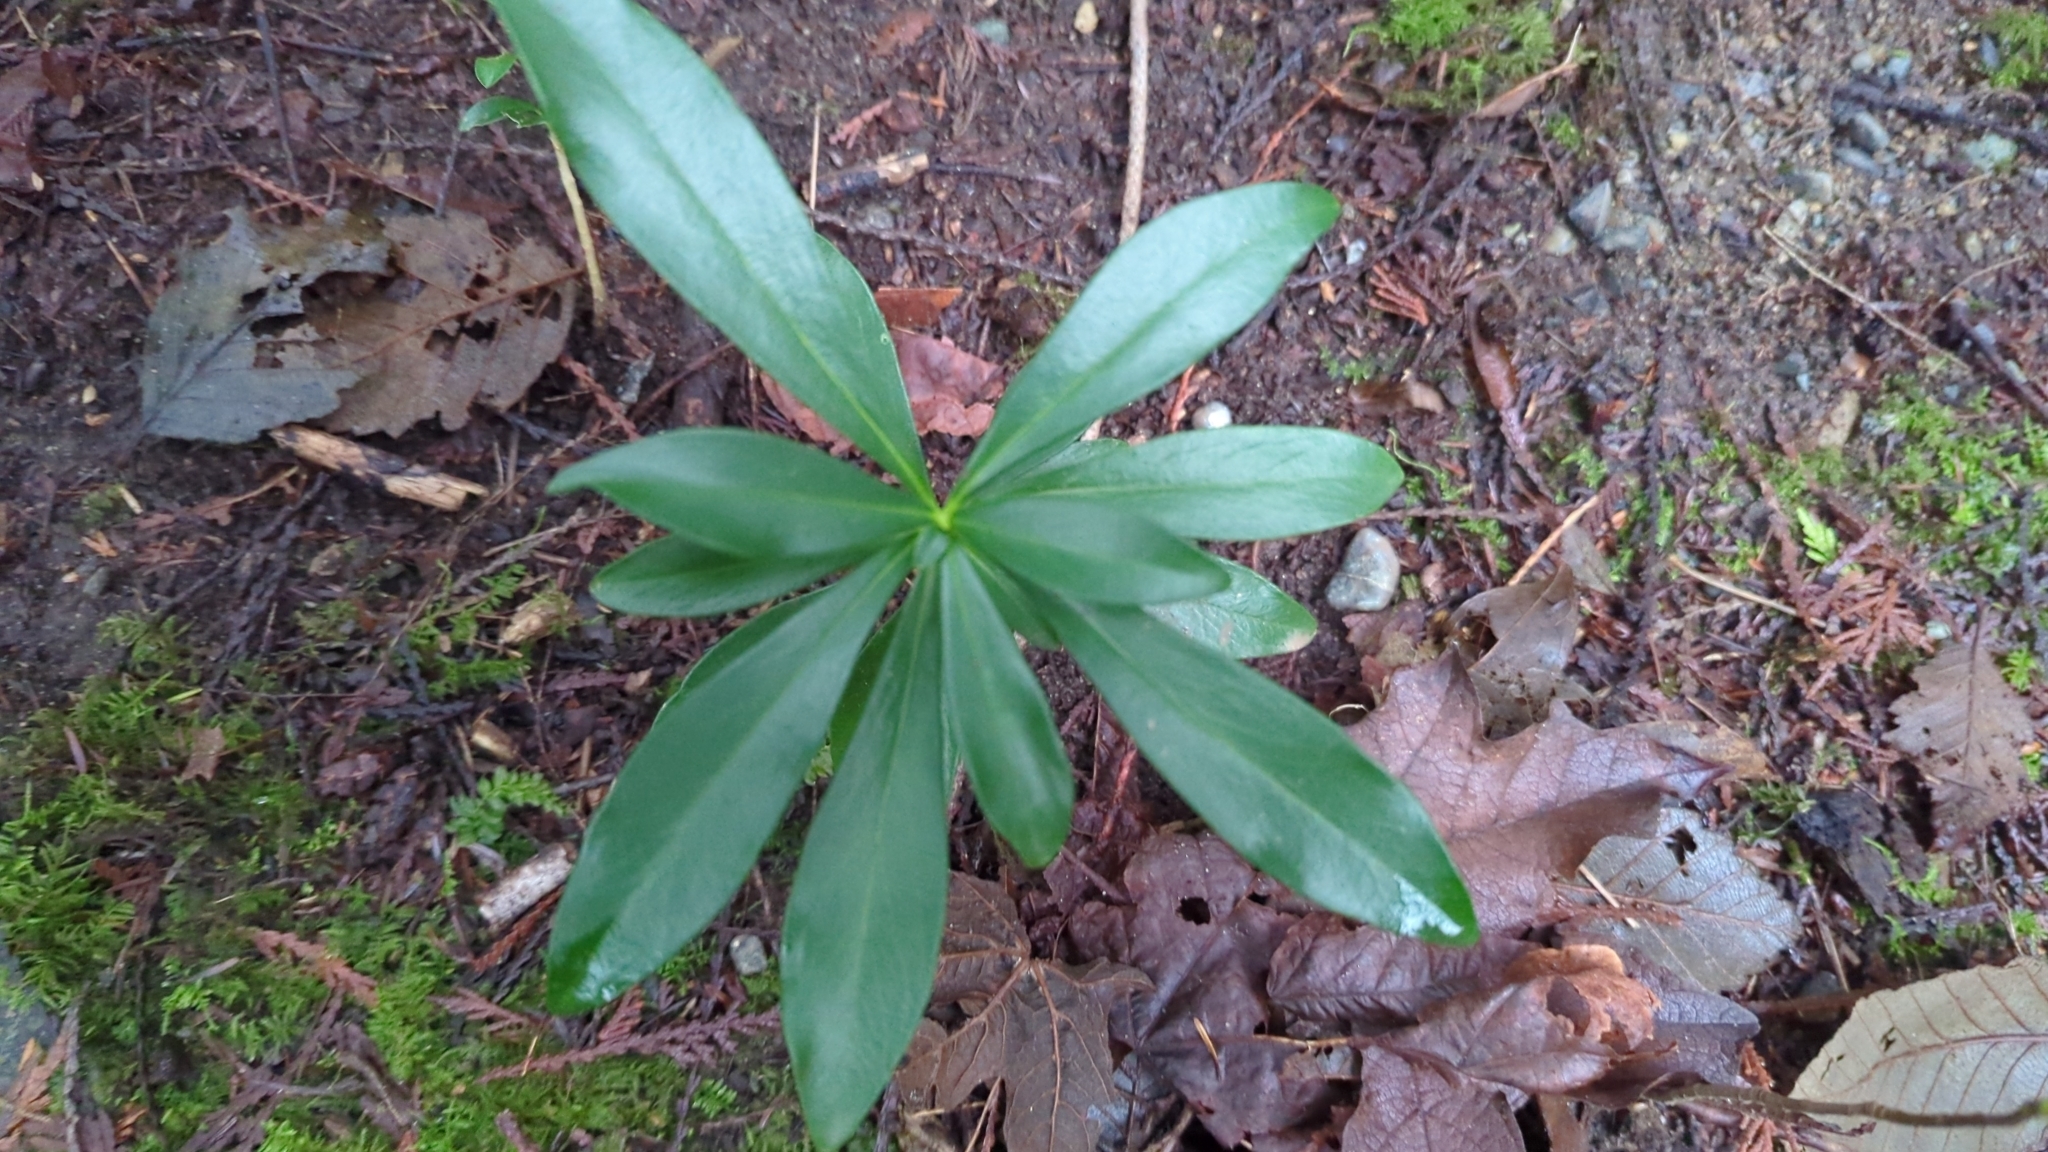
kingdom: Plantae
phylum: Tracheophyta
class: Magnoliopsida
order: Malvales
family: Thymelaeaceae
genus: Daphne
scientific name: Daphne laureola
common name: Spurge-laurel
